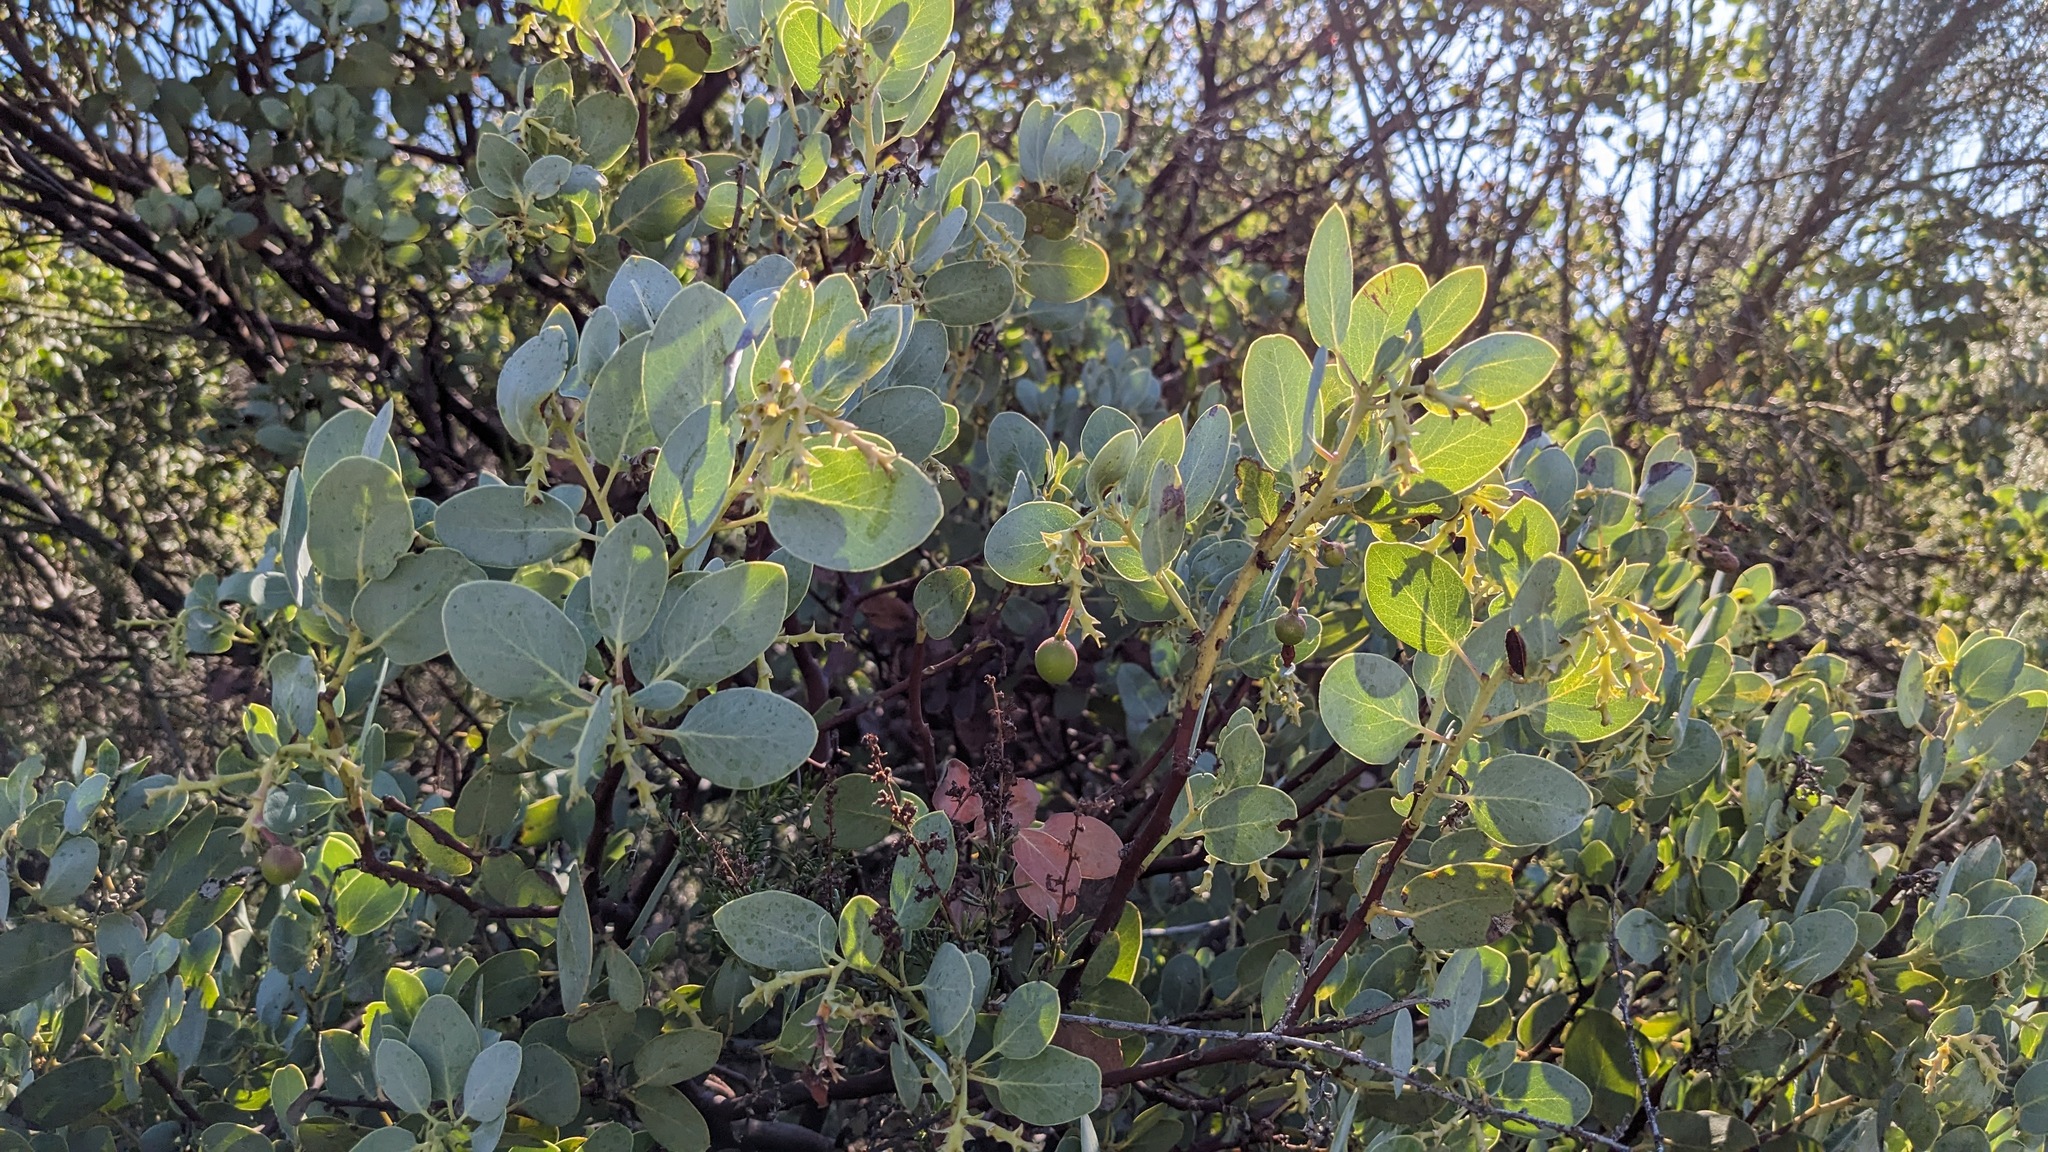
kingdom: Plantae
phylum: Tracheophyta
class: Magnoliopsida
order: Ericales
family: Ericaceae
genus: Arctostaphylos
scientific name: Arctostaphylos glauca
